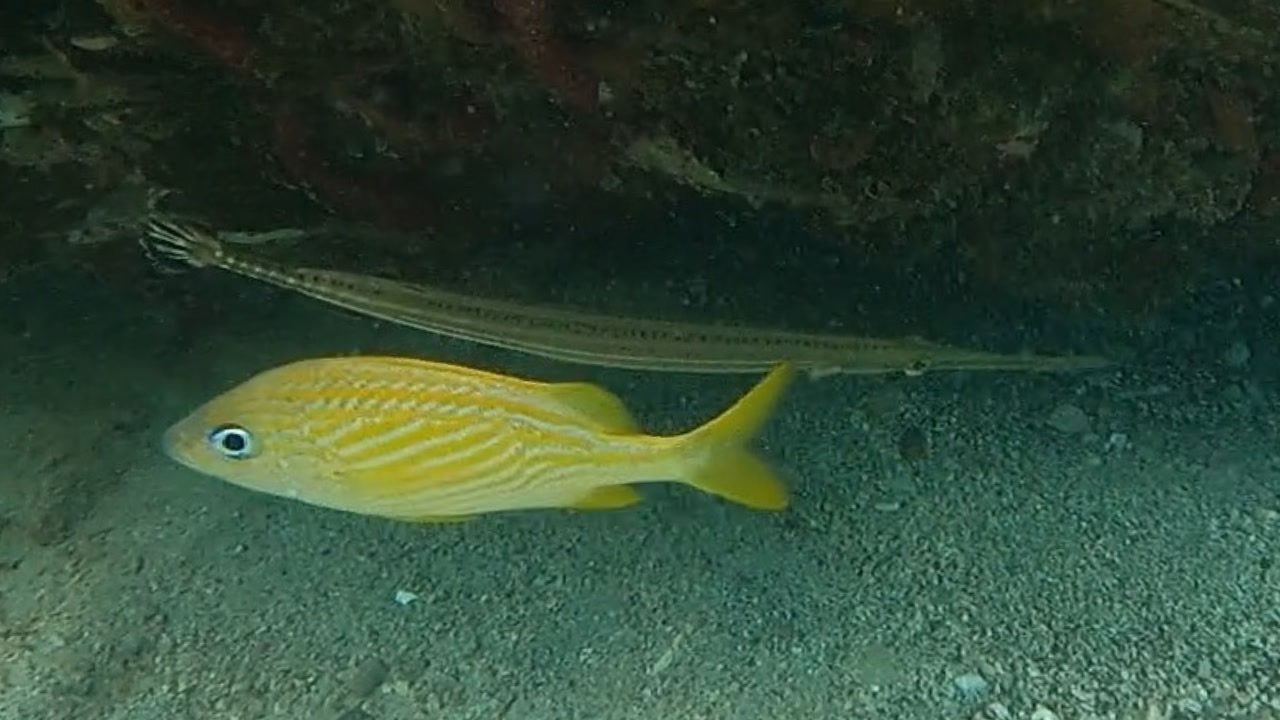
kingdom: Animalia
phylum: Chordata
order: Syngnathiformes
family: Aulostomidae
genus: Aulostomus
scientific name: Aulostomus maculatus
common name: West atlantic trumpetfish
